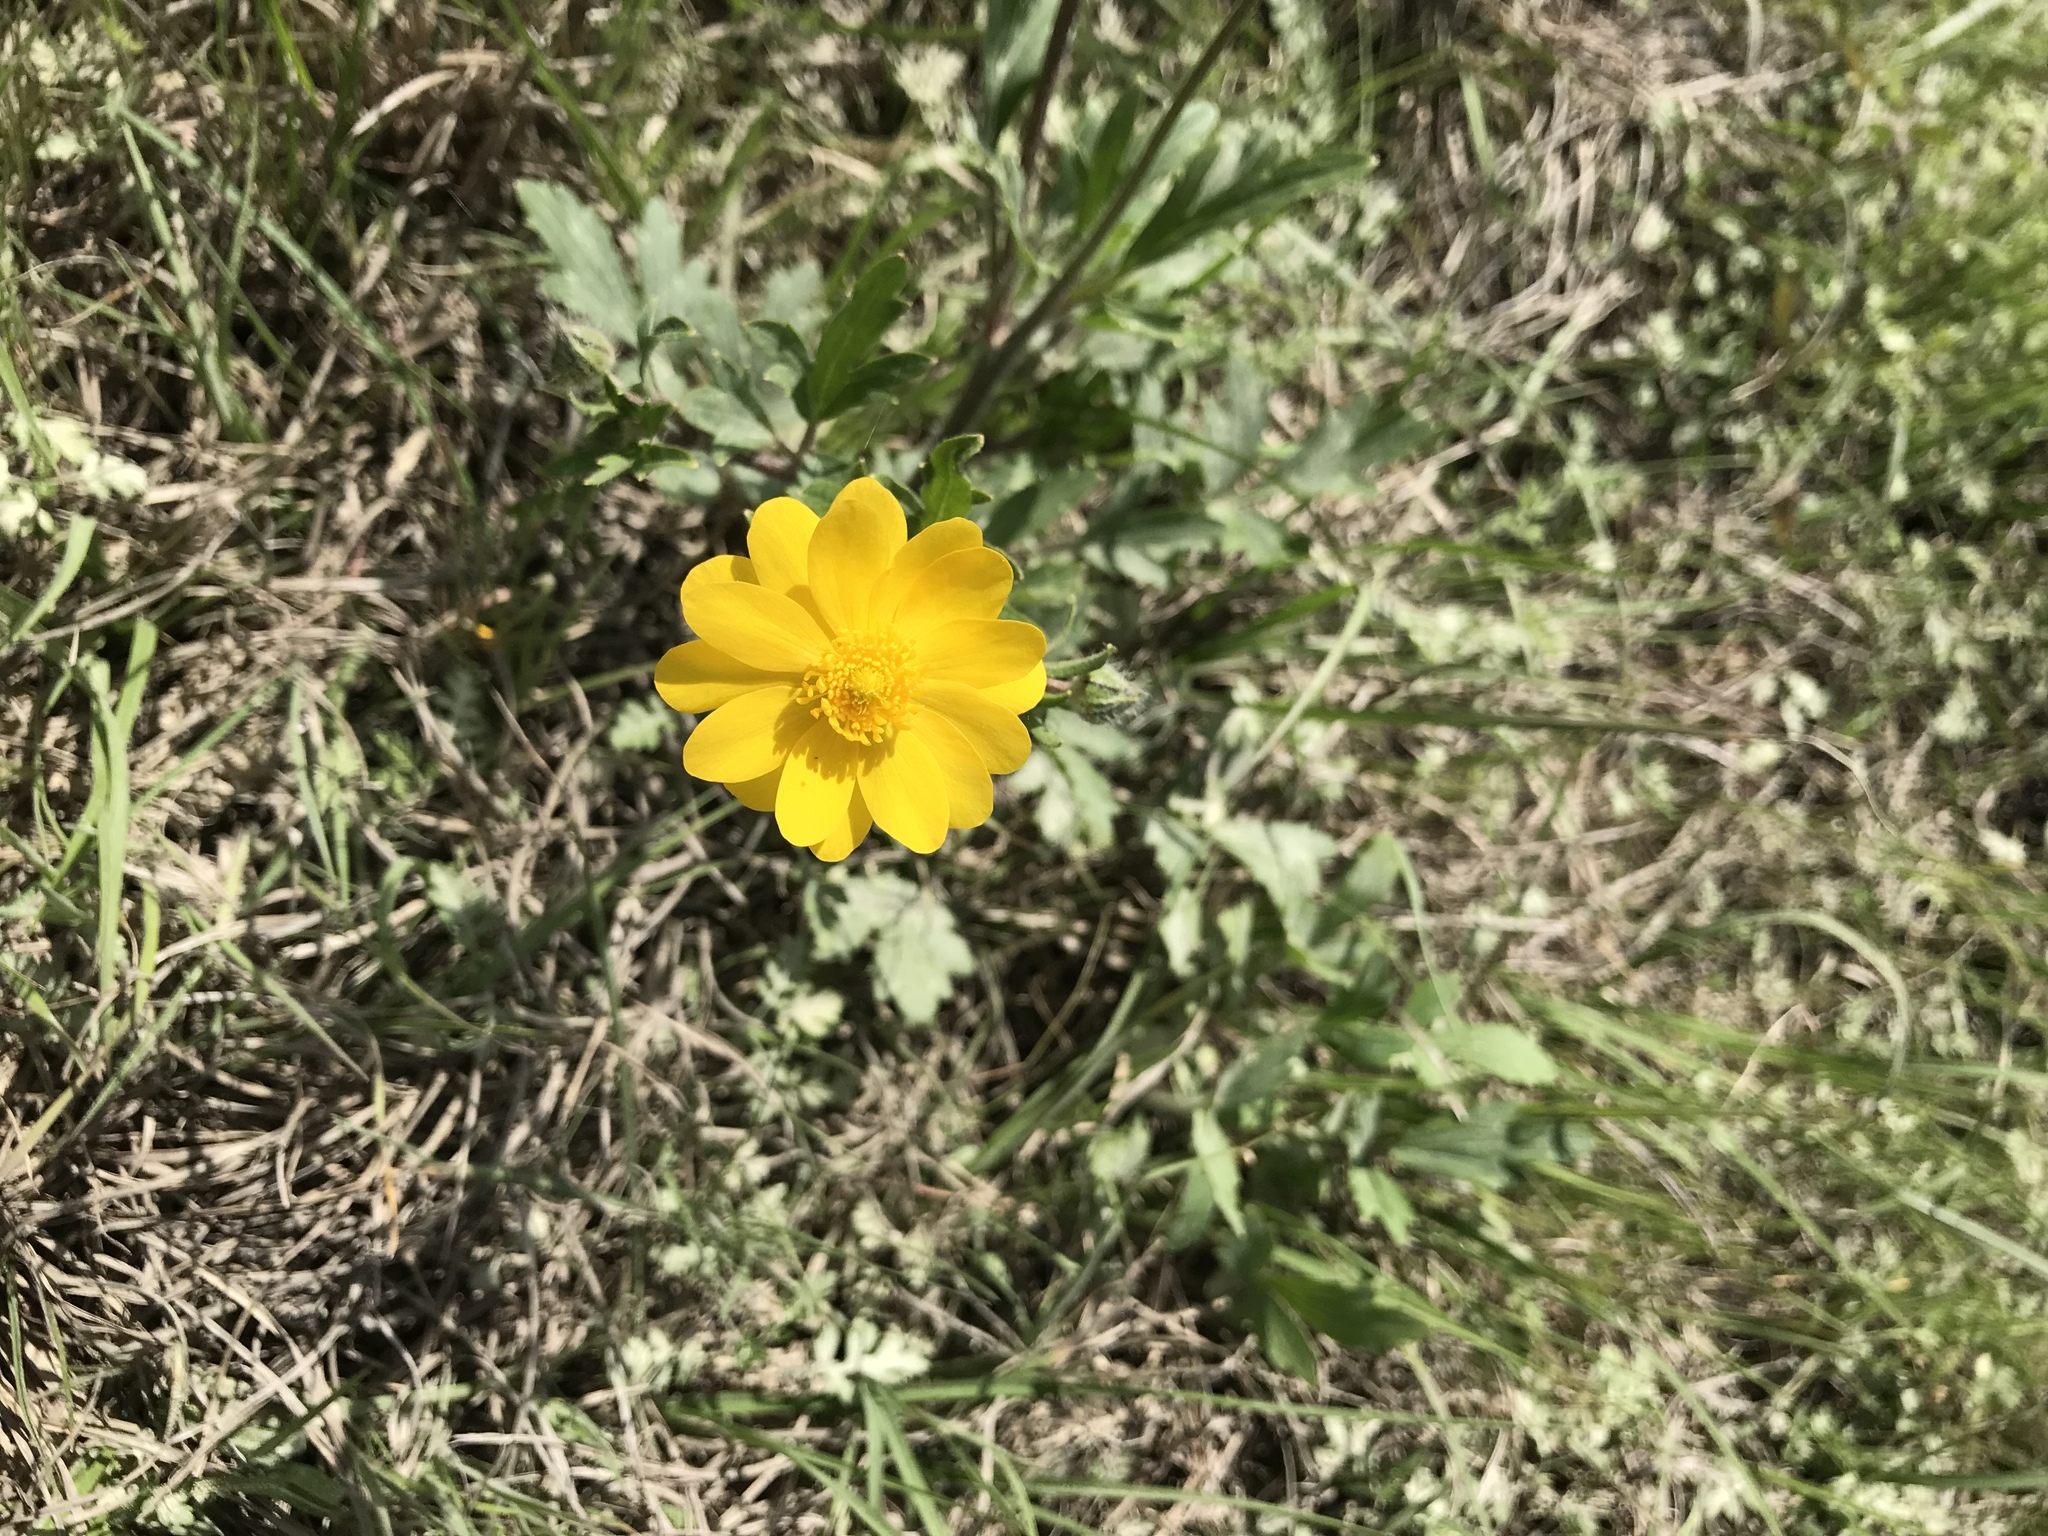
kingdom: Plantae
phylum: Tracheophyta
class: Magnoliopsida
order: Ranunculales
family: Ranunculaceae
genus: Ranunculus
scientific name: Ranunculus macranthus
